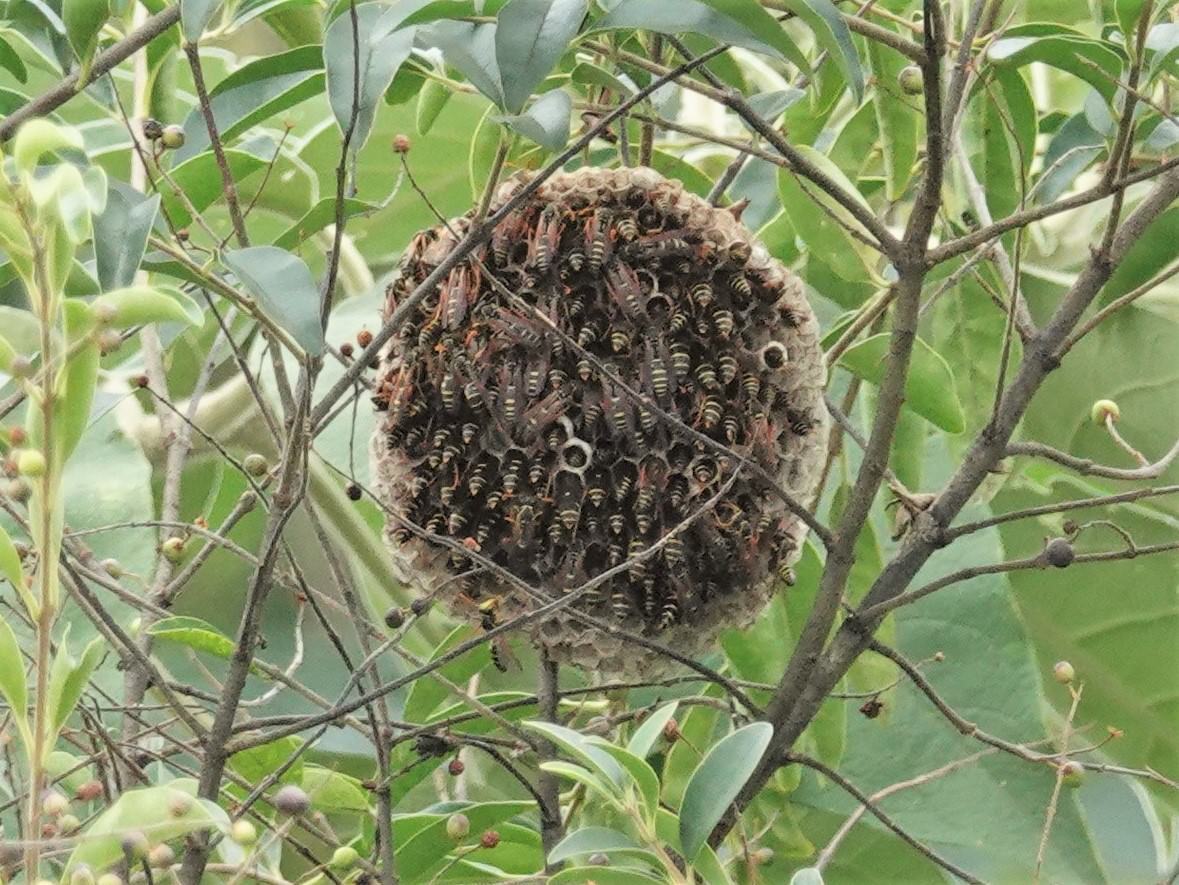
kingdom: Animalia
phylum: Arthropoda
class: Insecta
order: Hymenoptera
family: Eumenidae
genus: Polistes
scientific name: Polistes chinensis
